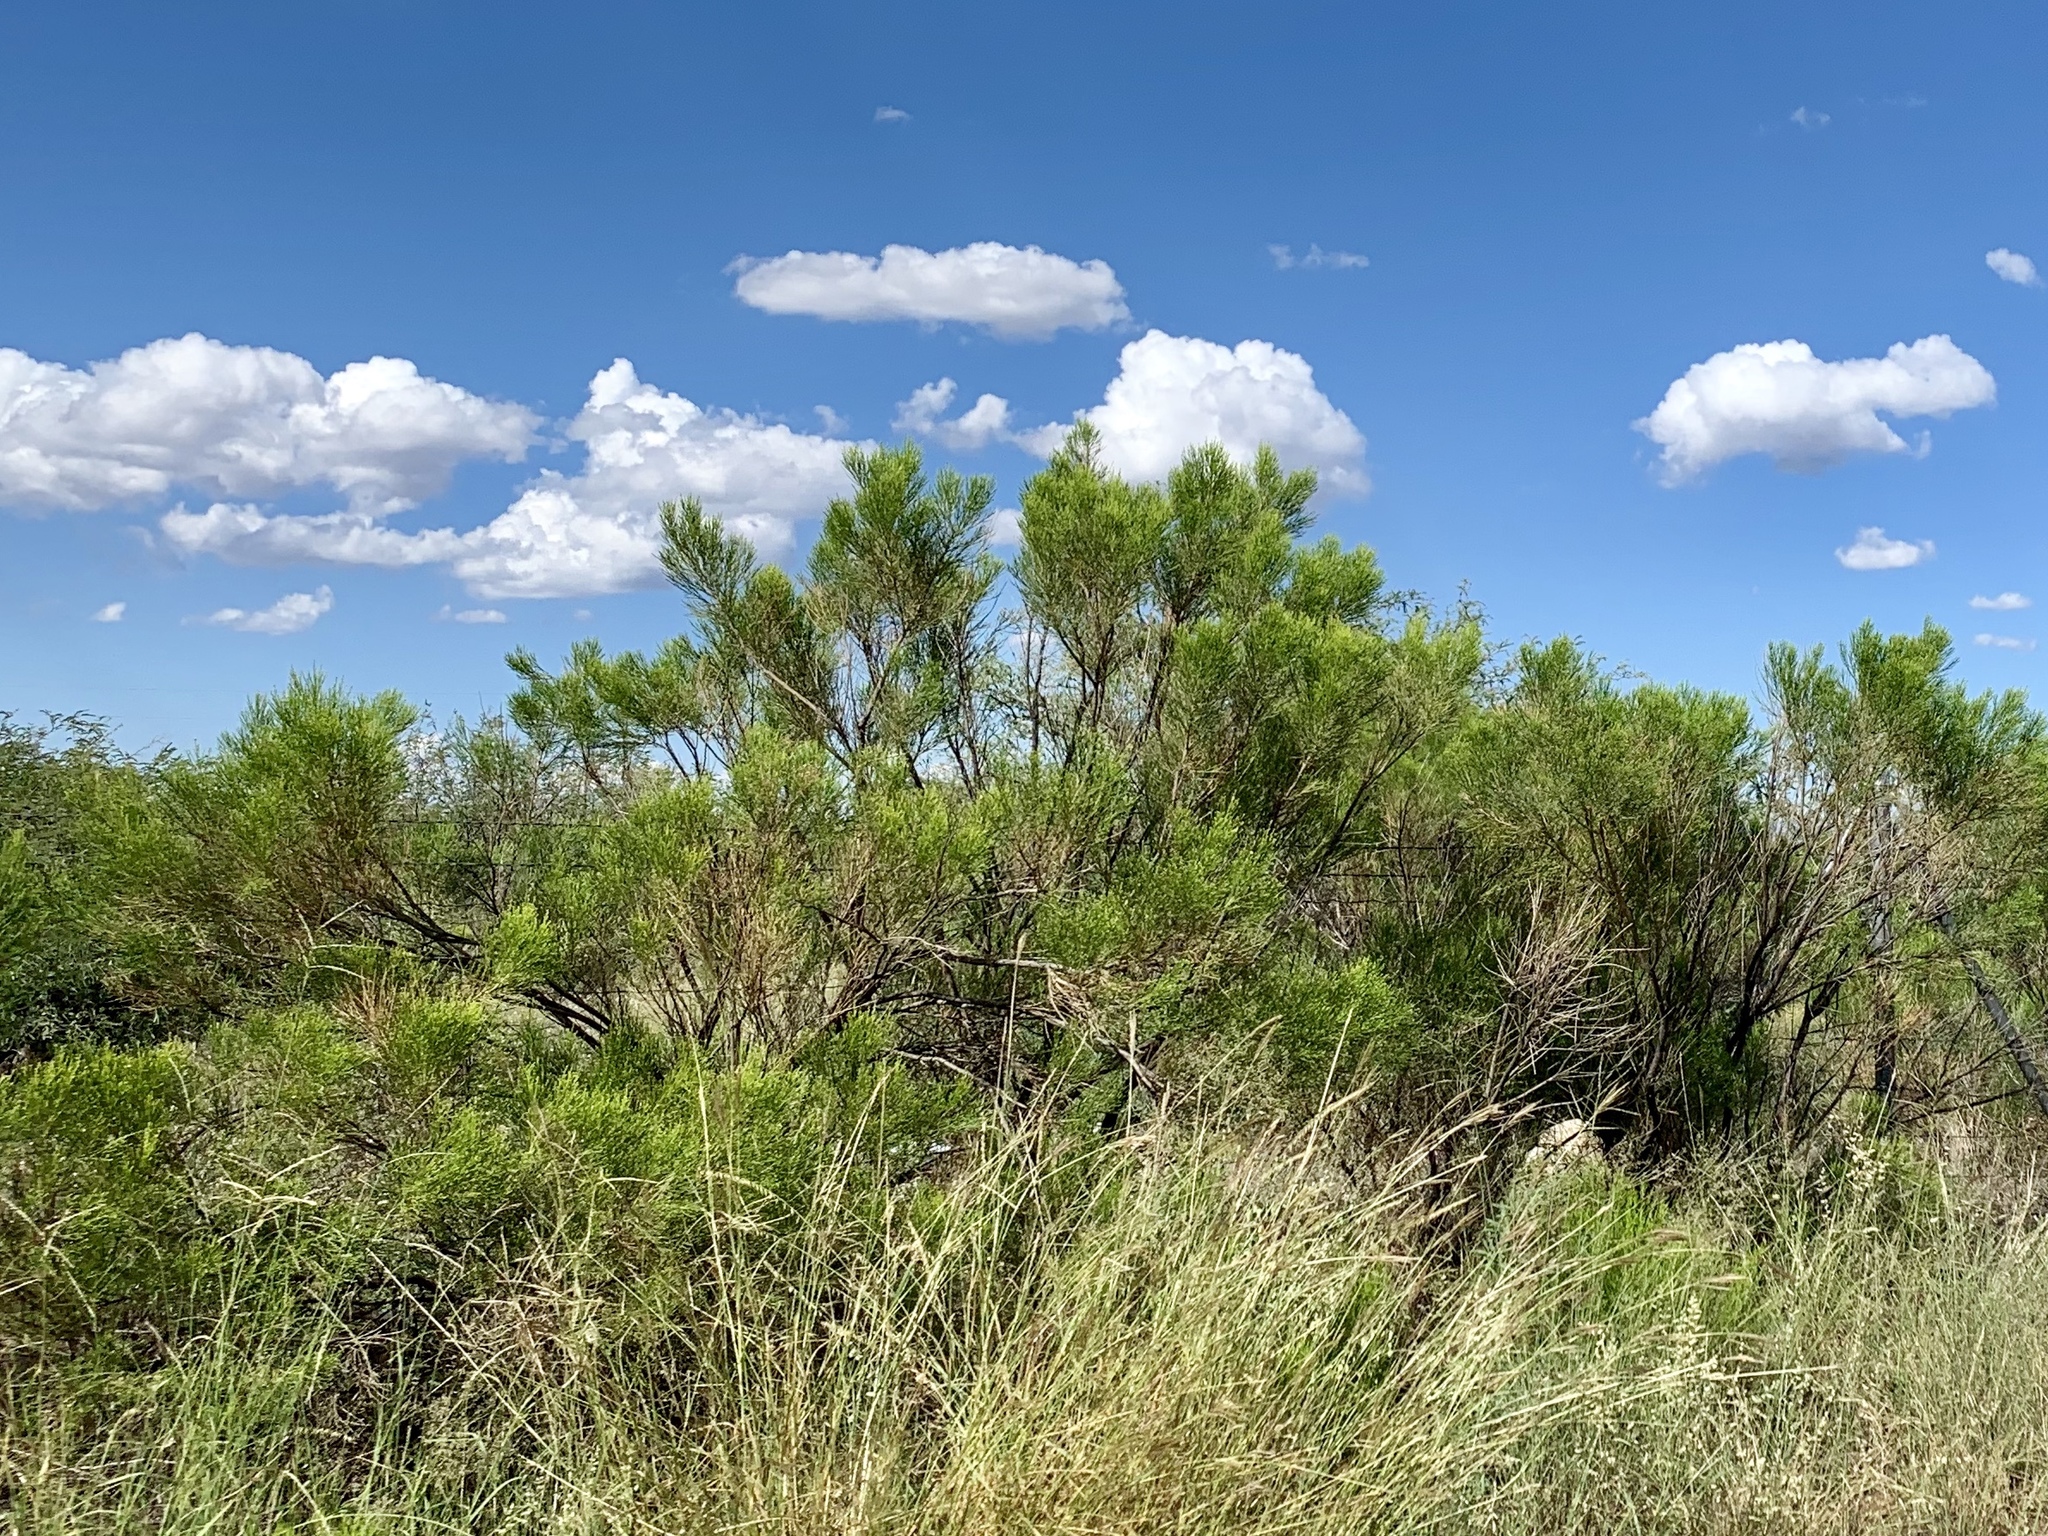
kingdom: Plantae
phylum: Tracheophyta
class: Magnoliopsida
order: Asterales
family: Asteraceae
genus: Baccharis
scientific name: Baccharis sarothroides
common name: Desert-broom
